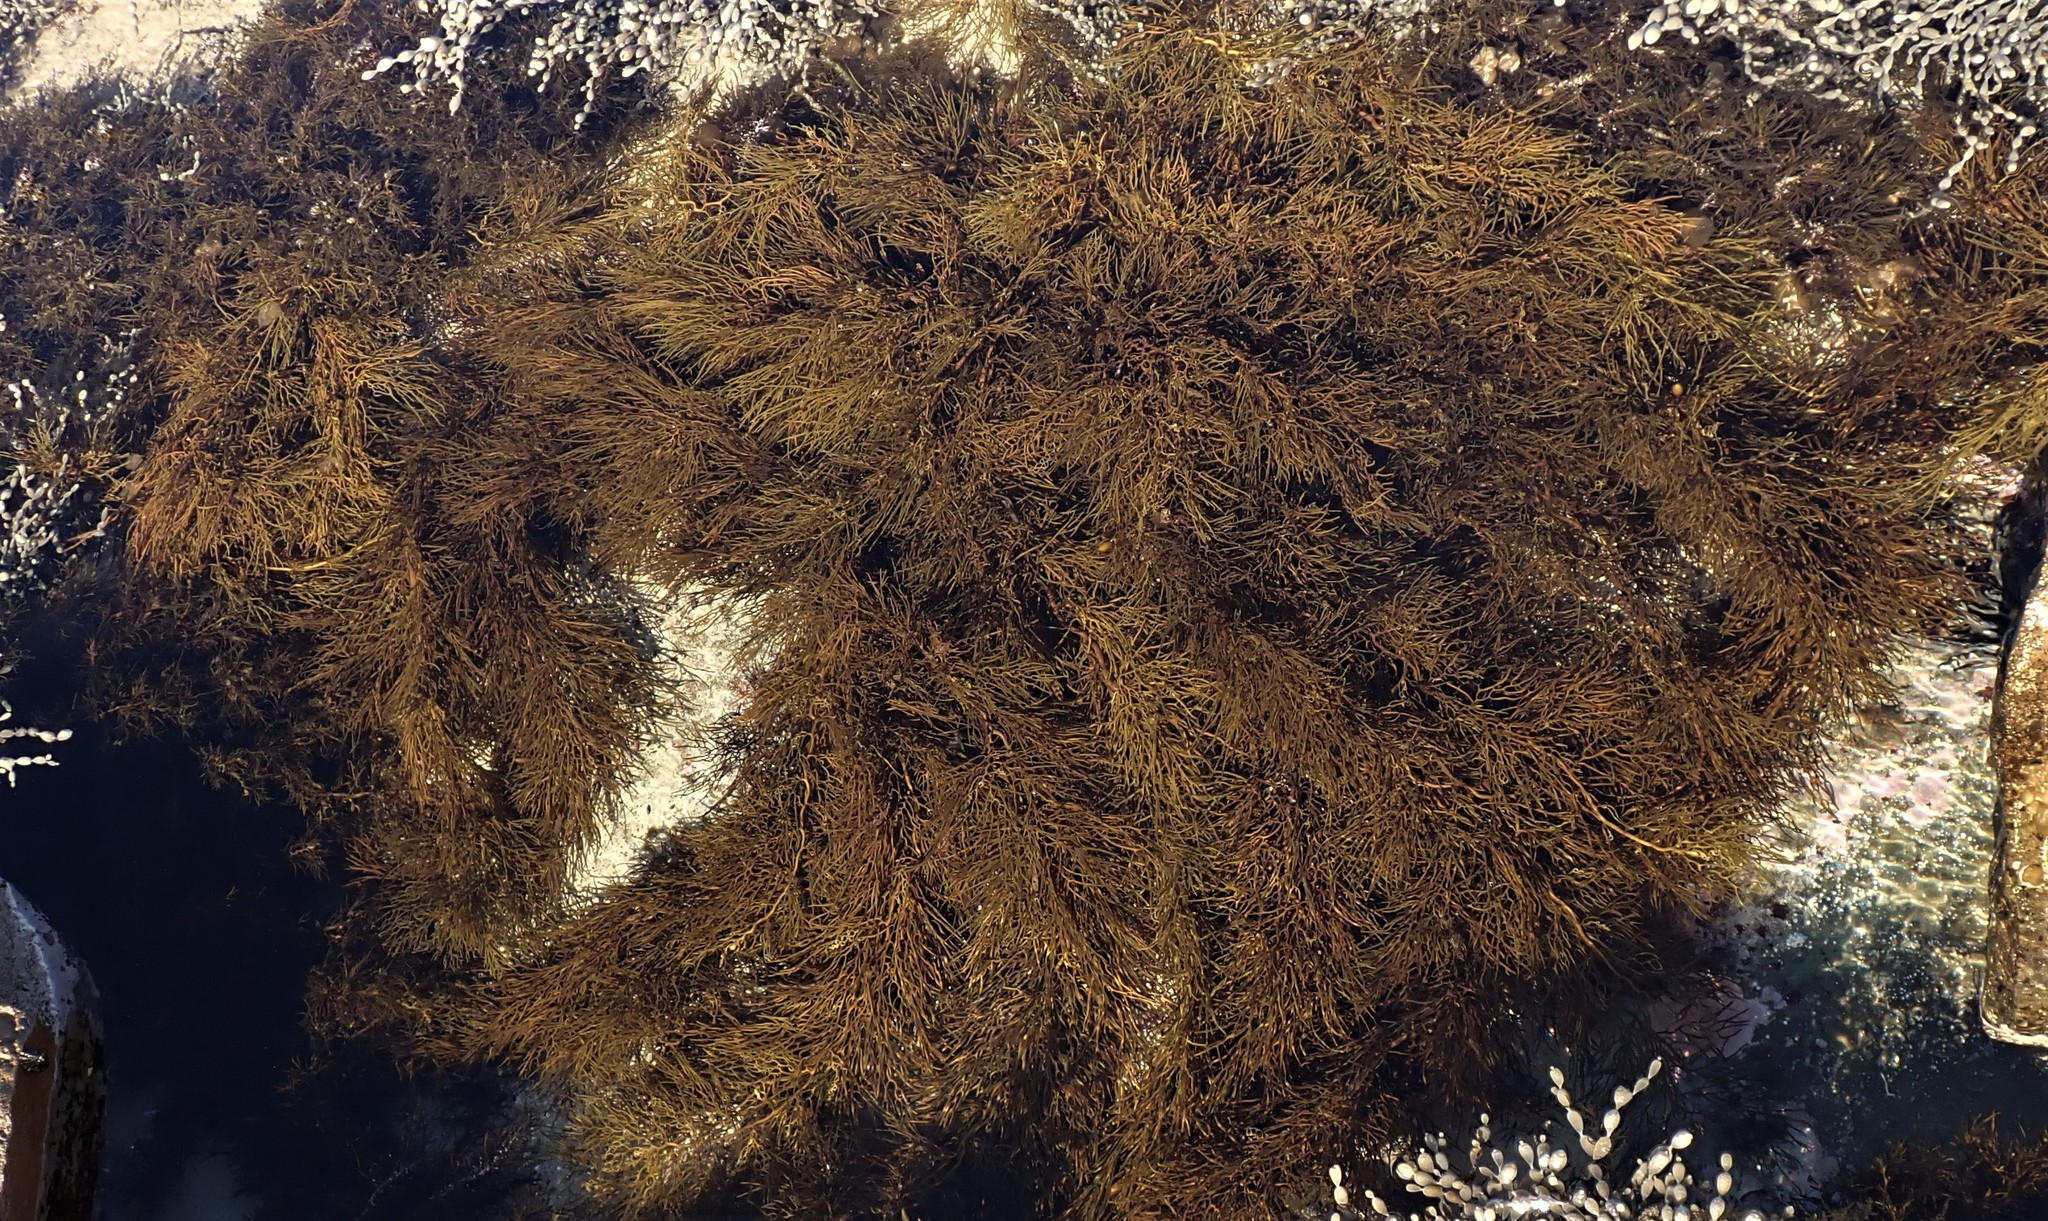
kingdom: Chromista
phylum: Ochrophyta
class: Phaeophyceae
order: Fucales
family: Sargassaceae
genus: Cystophora
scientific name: Cystophora
